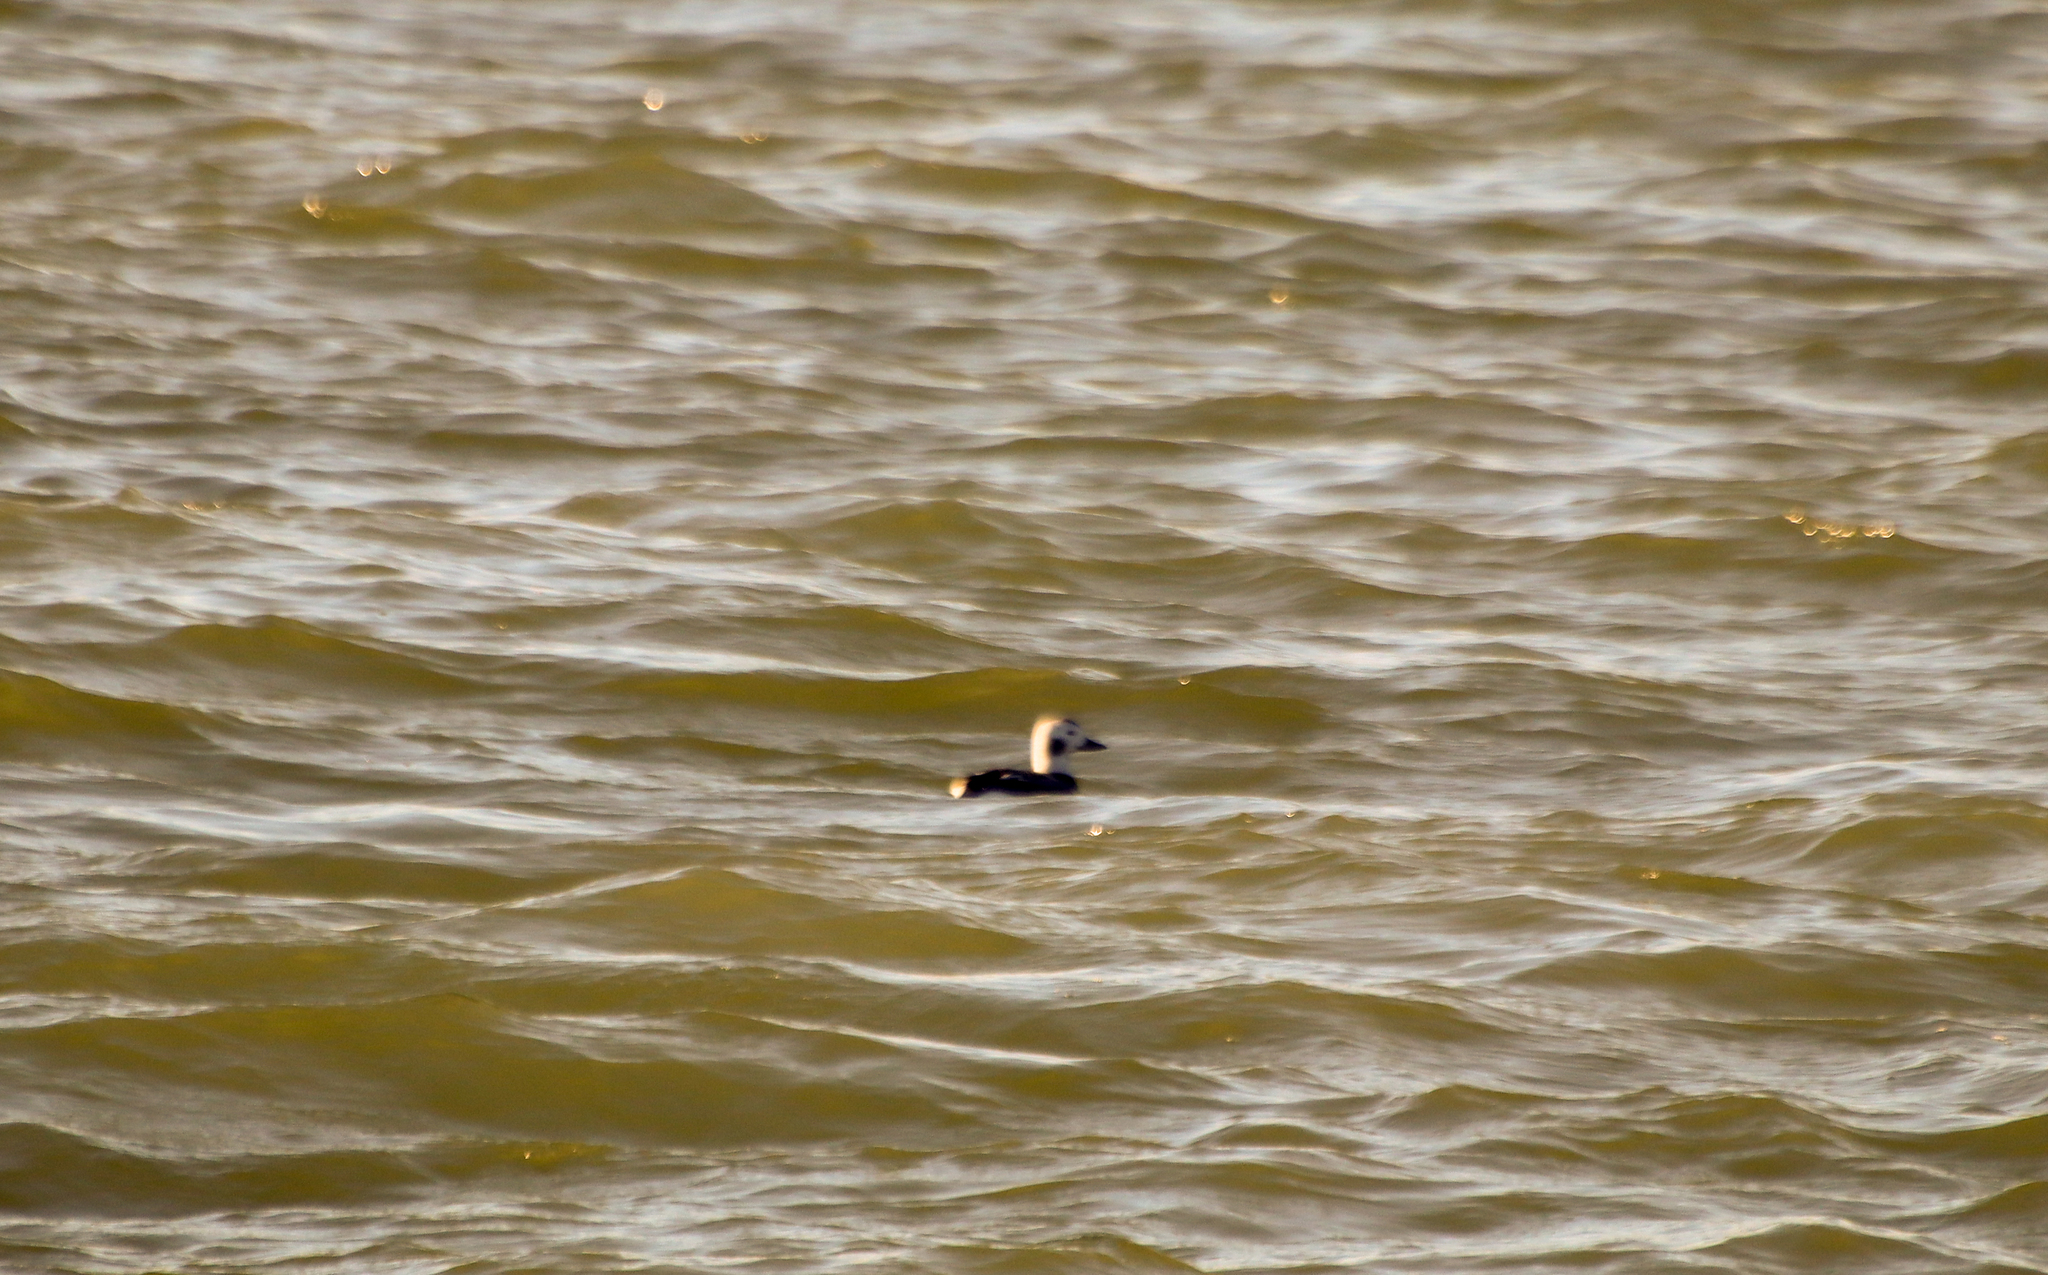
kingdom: Animalia
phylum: Chordata
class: Aves
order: Anseriformes
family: Anatidae
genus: Clangula
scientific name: Clangula hyemalis
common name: Long-tailed duck
